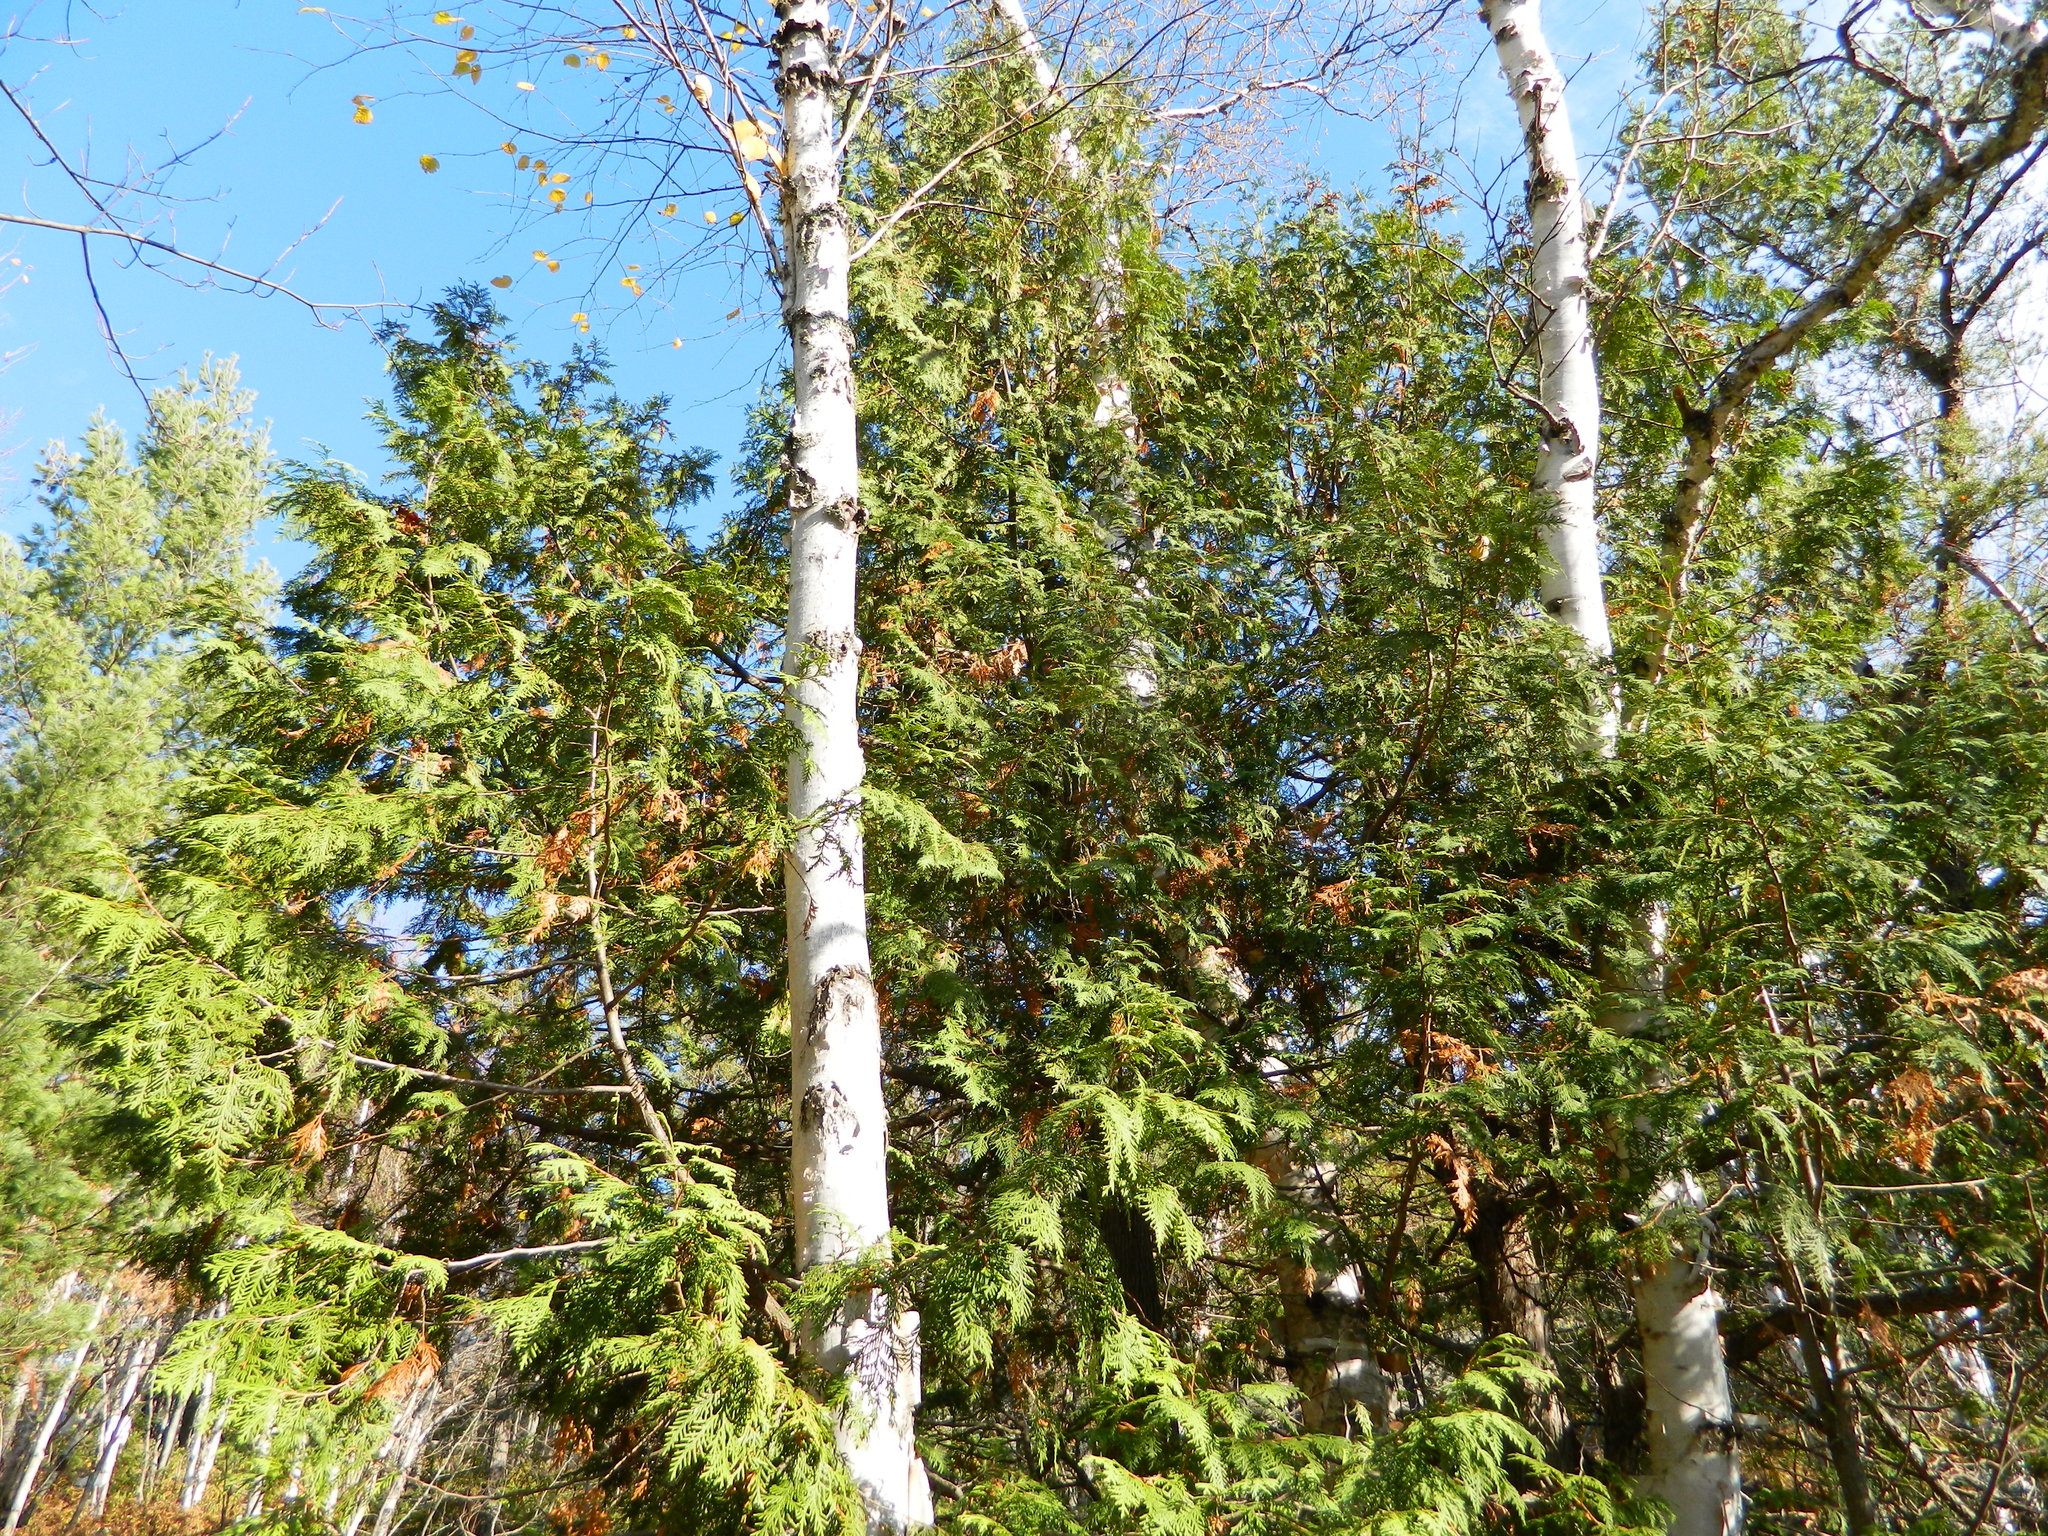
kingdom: Plantae
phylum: Tracheophyta
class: Pinopsida
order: Pinales
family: Cupressaceae
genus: Thuja
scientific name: Thuja occidentalis
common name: Northern white-cedar
